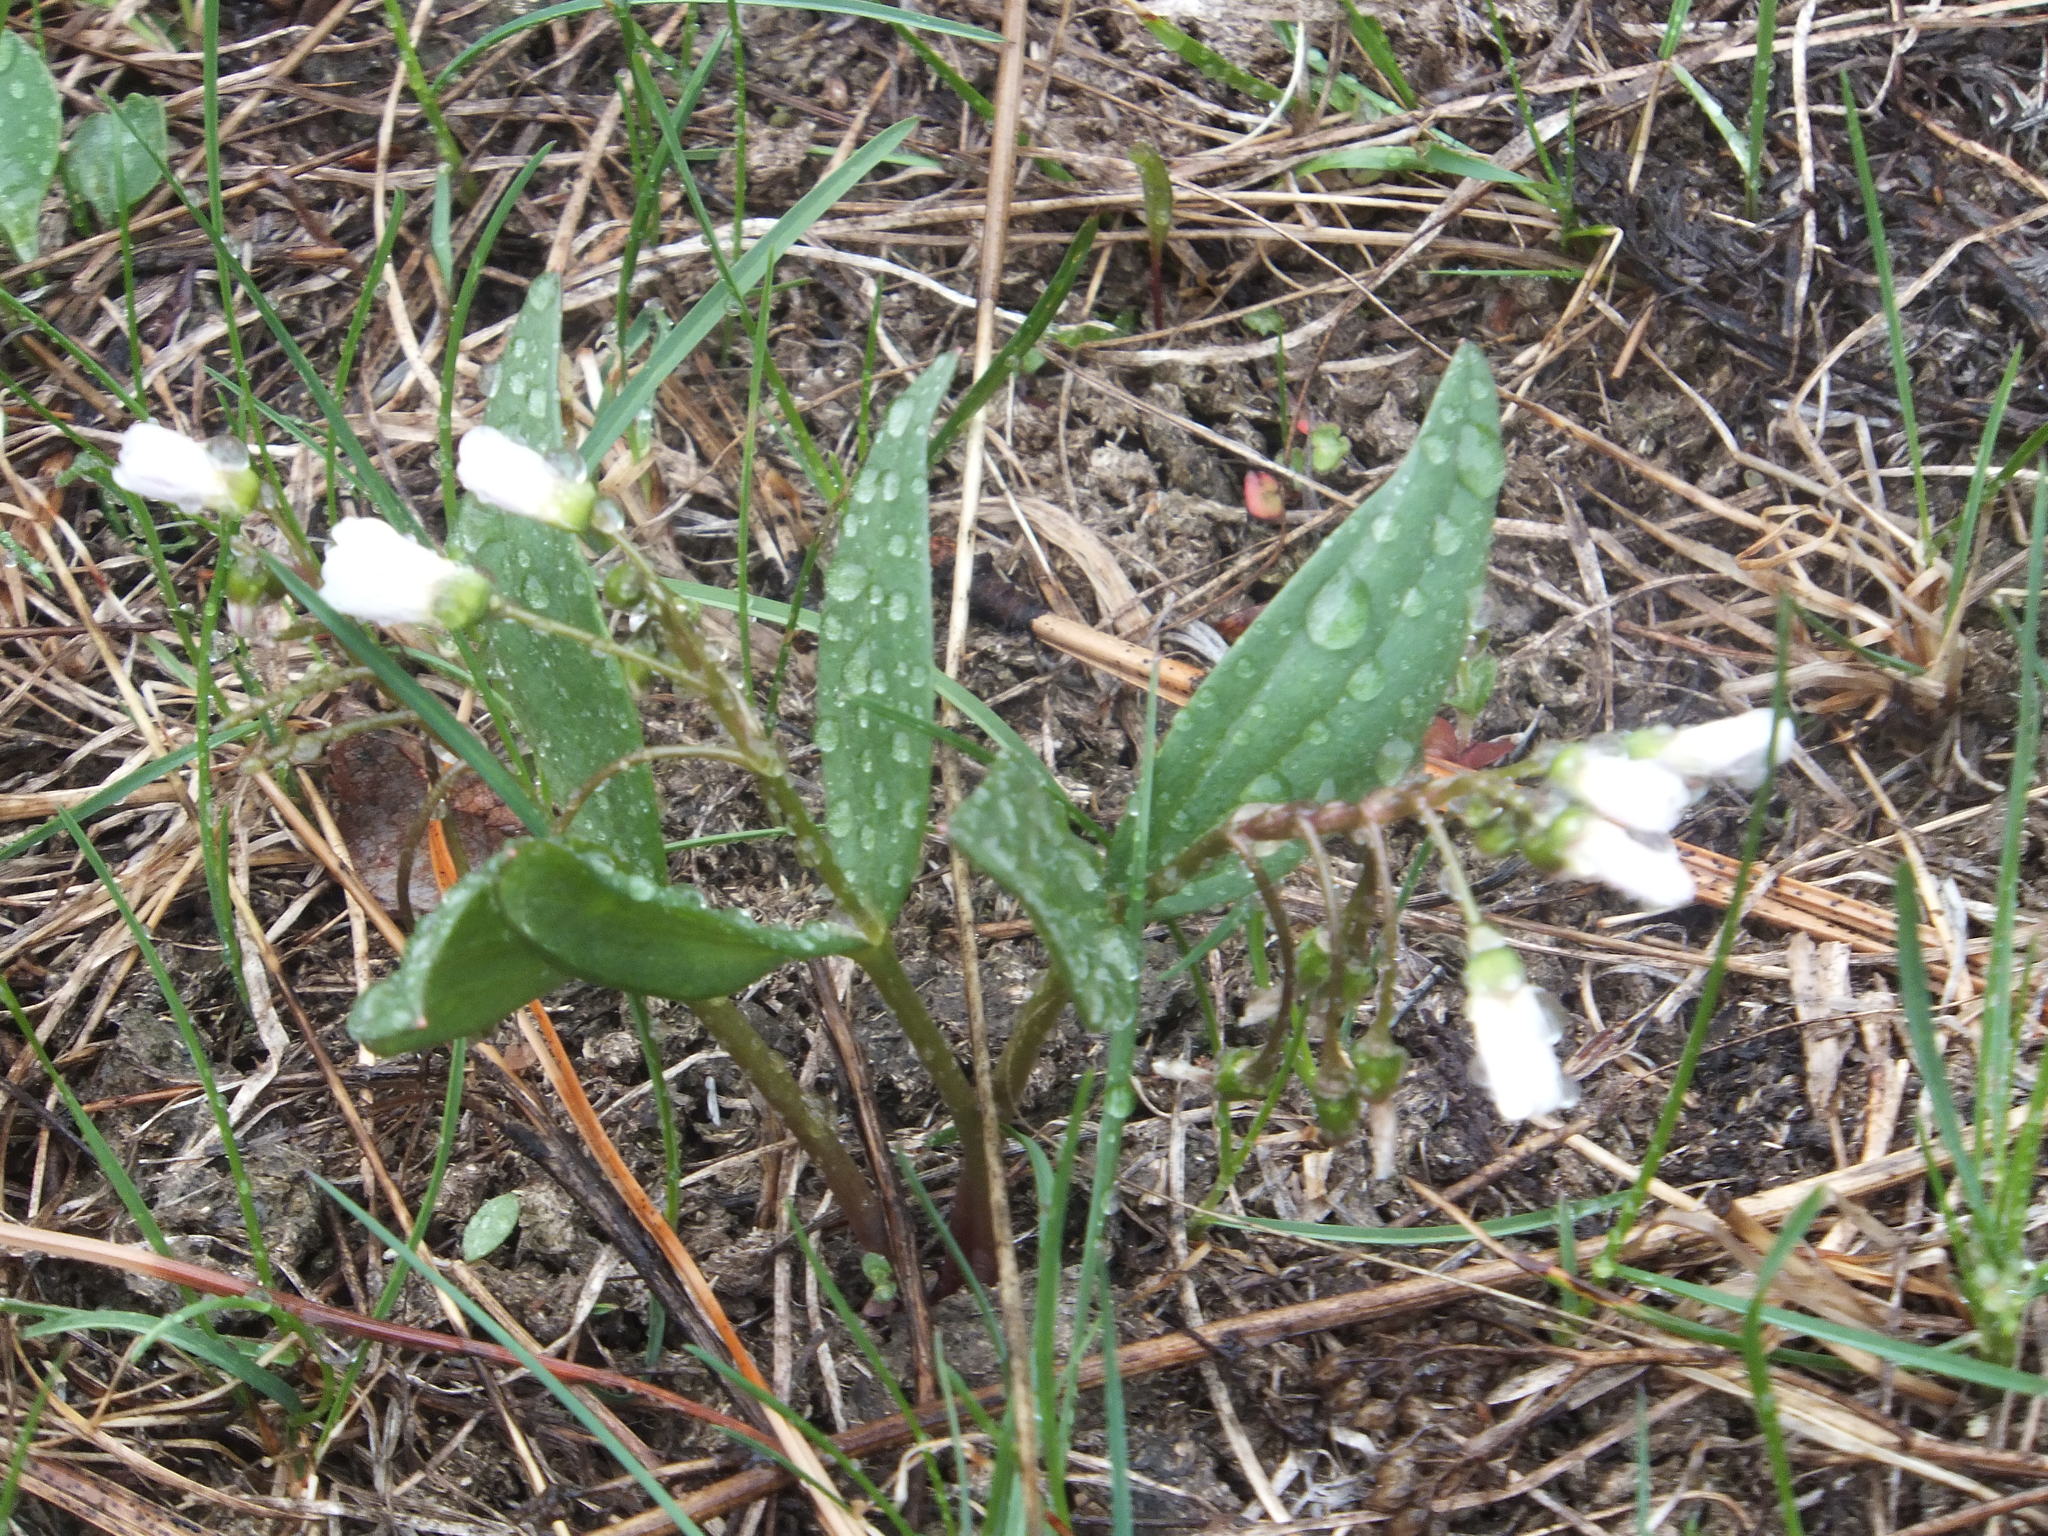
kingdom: Plantae
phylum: Tracheophyta
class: Magnoliopsida
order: Caryophyllales
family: Montiaceae
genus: Claytonia
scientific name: Claytonia lanceolata
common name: Western spring-beauty
